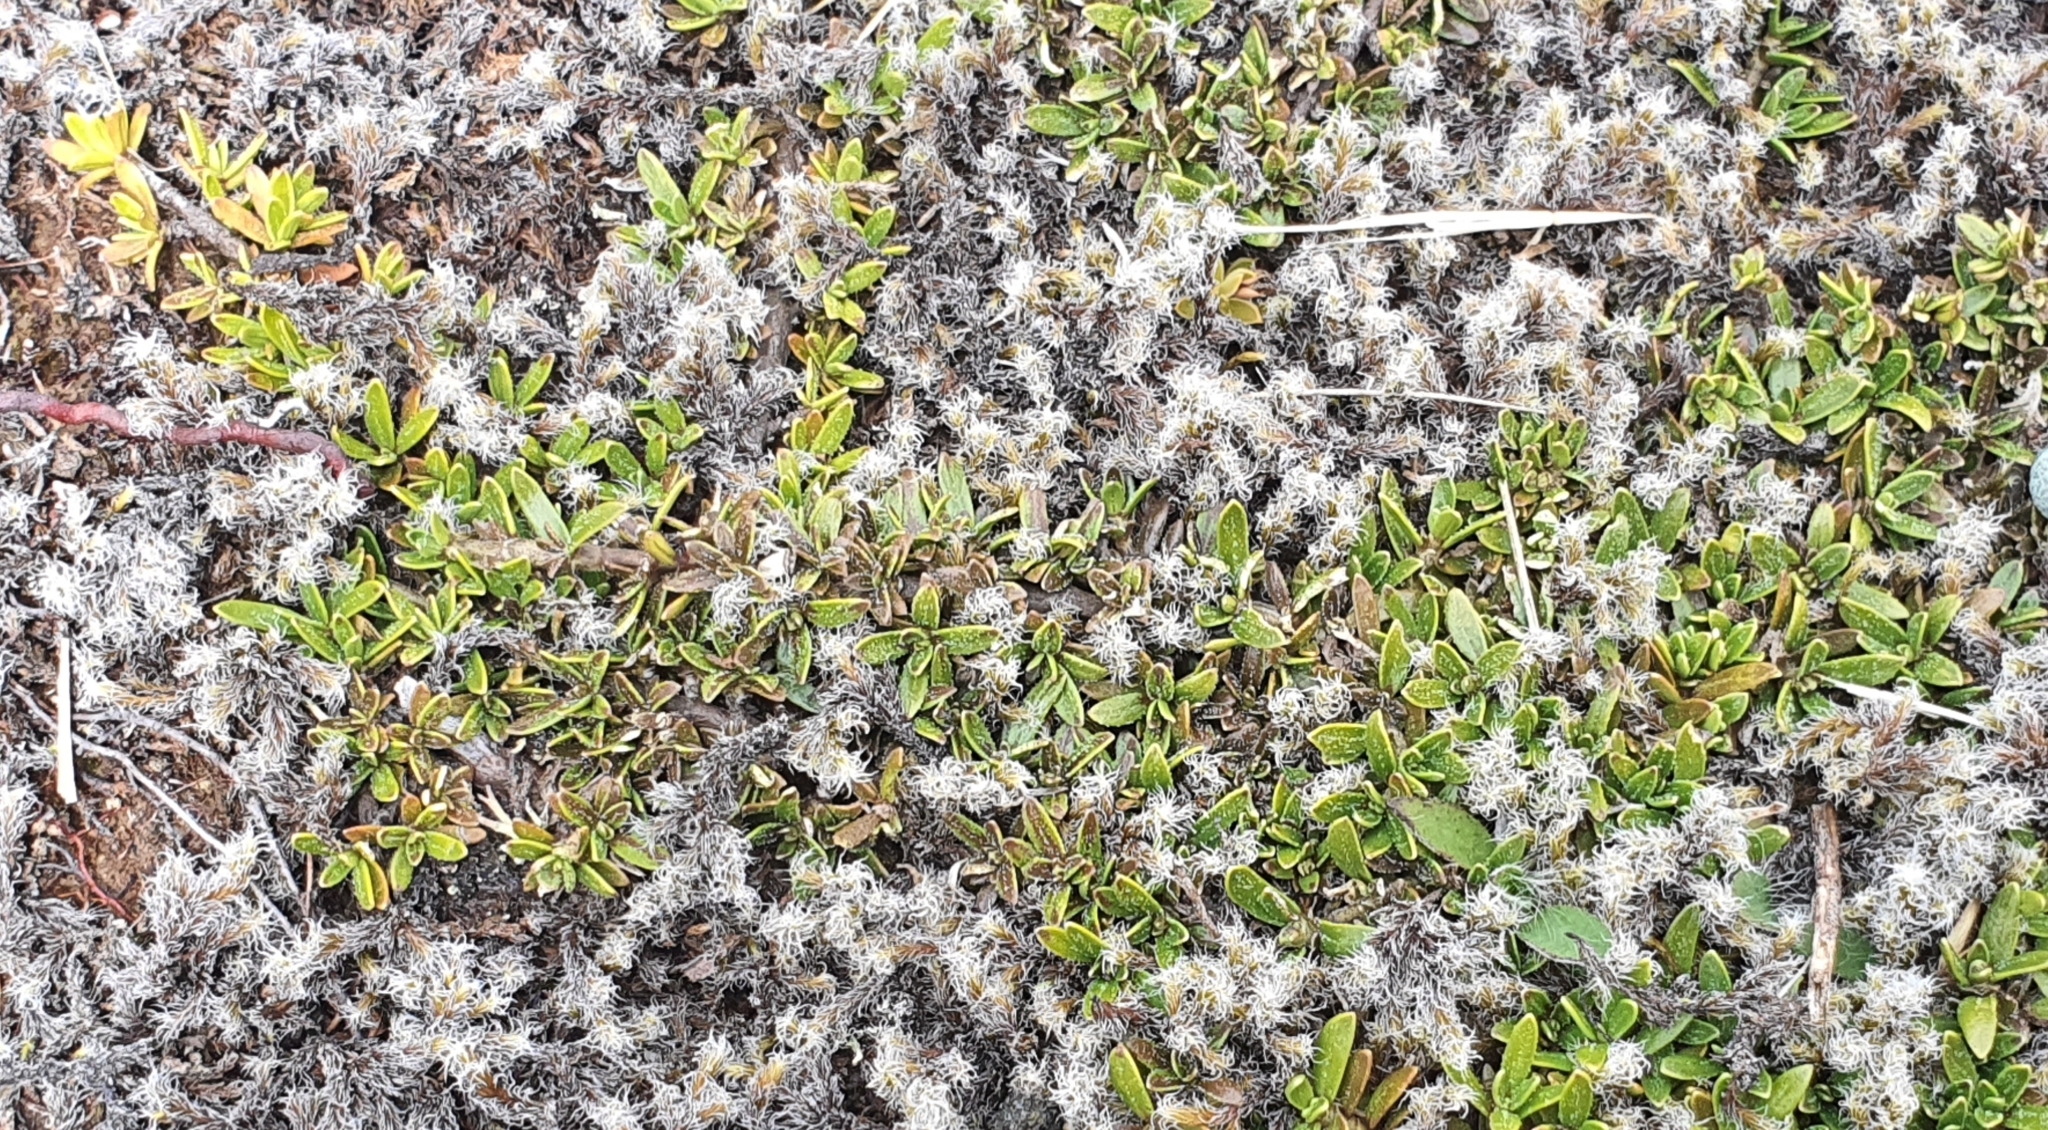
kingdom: Plantae
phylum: Tracheophyta
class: Magnoliopsida
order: Gentianales
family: Rubiaceae
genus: Coprosma
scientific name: Coprosma petriei
